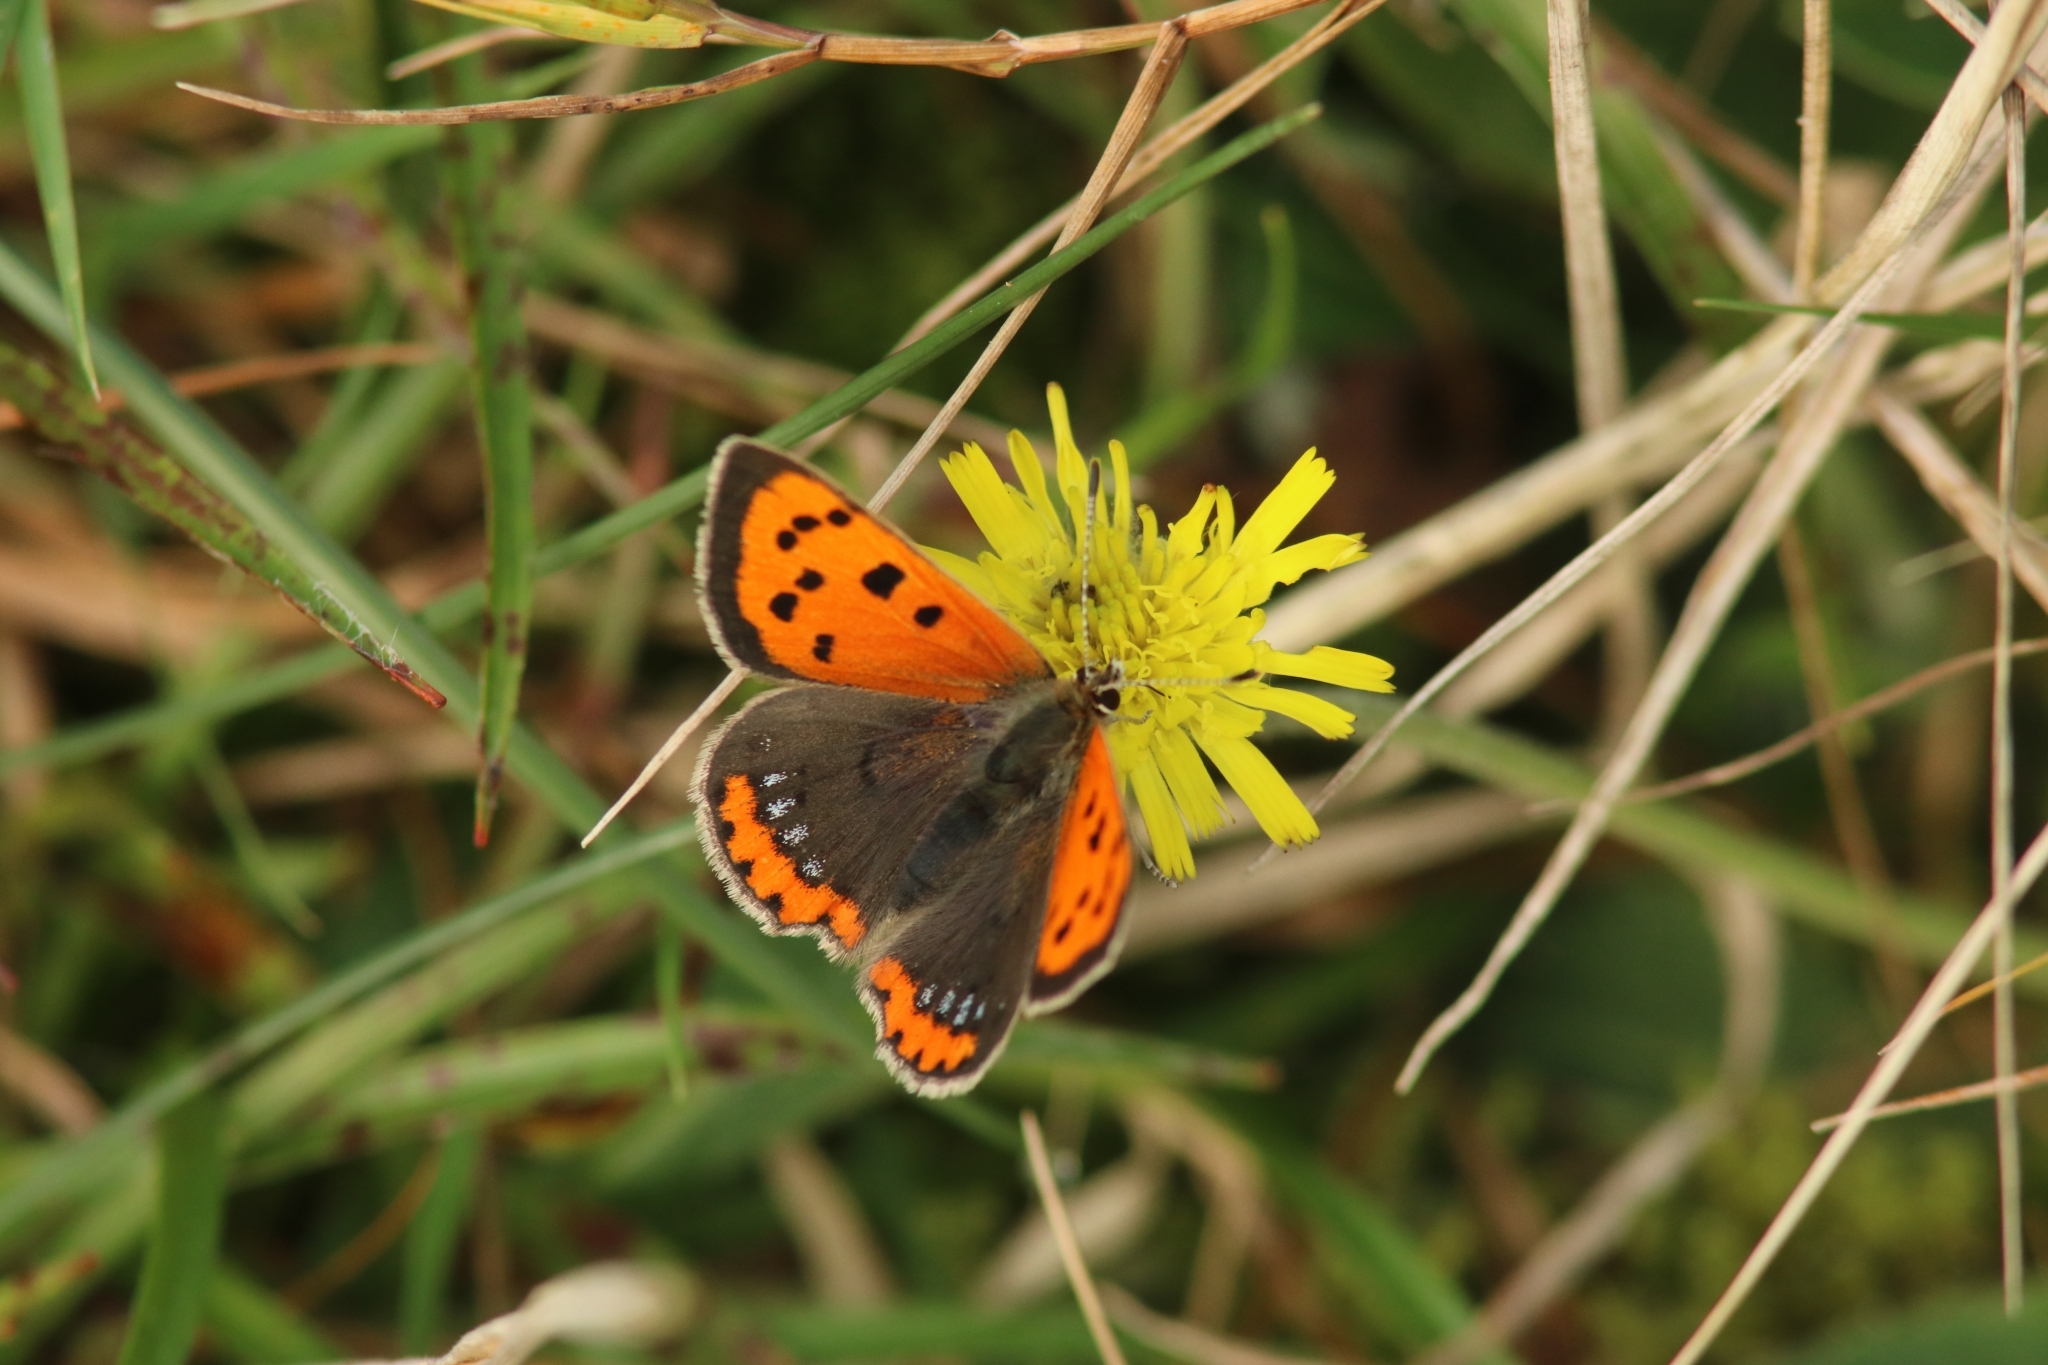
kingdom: Animalia
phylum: Arthropoda
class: Insecta
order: Lepidoptera
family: Lycaenidae
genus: Lycaena
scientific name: Lycaena phlaeas
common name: Small copper
